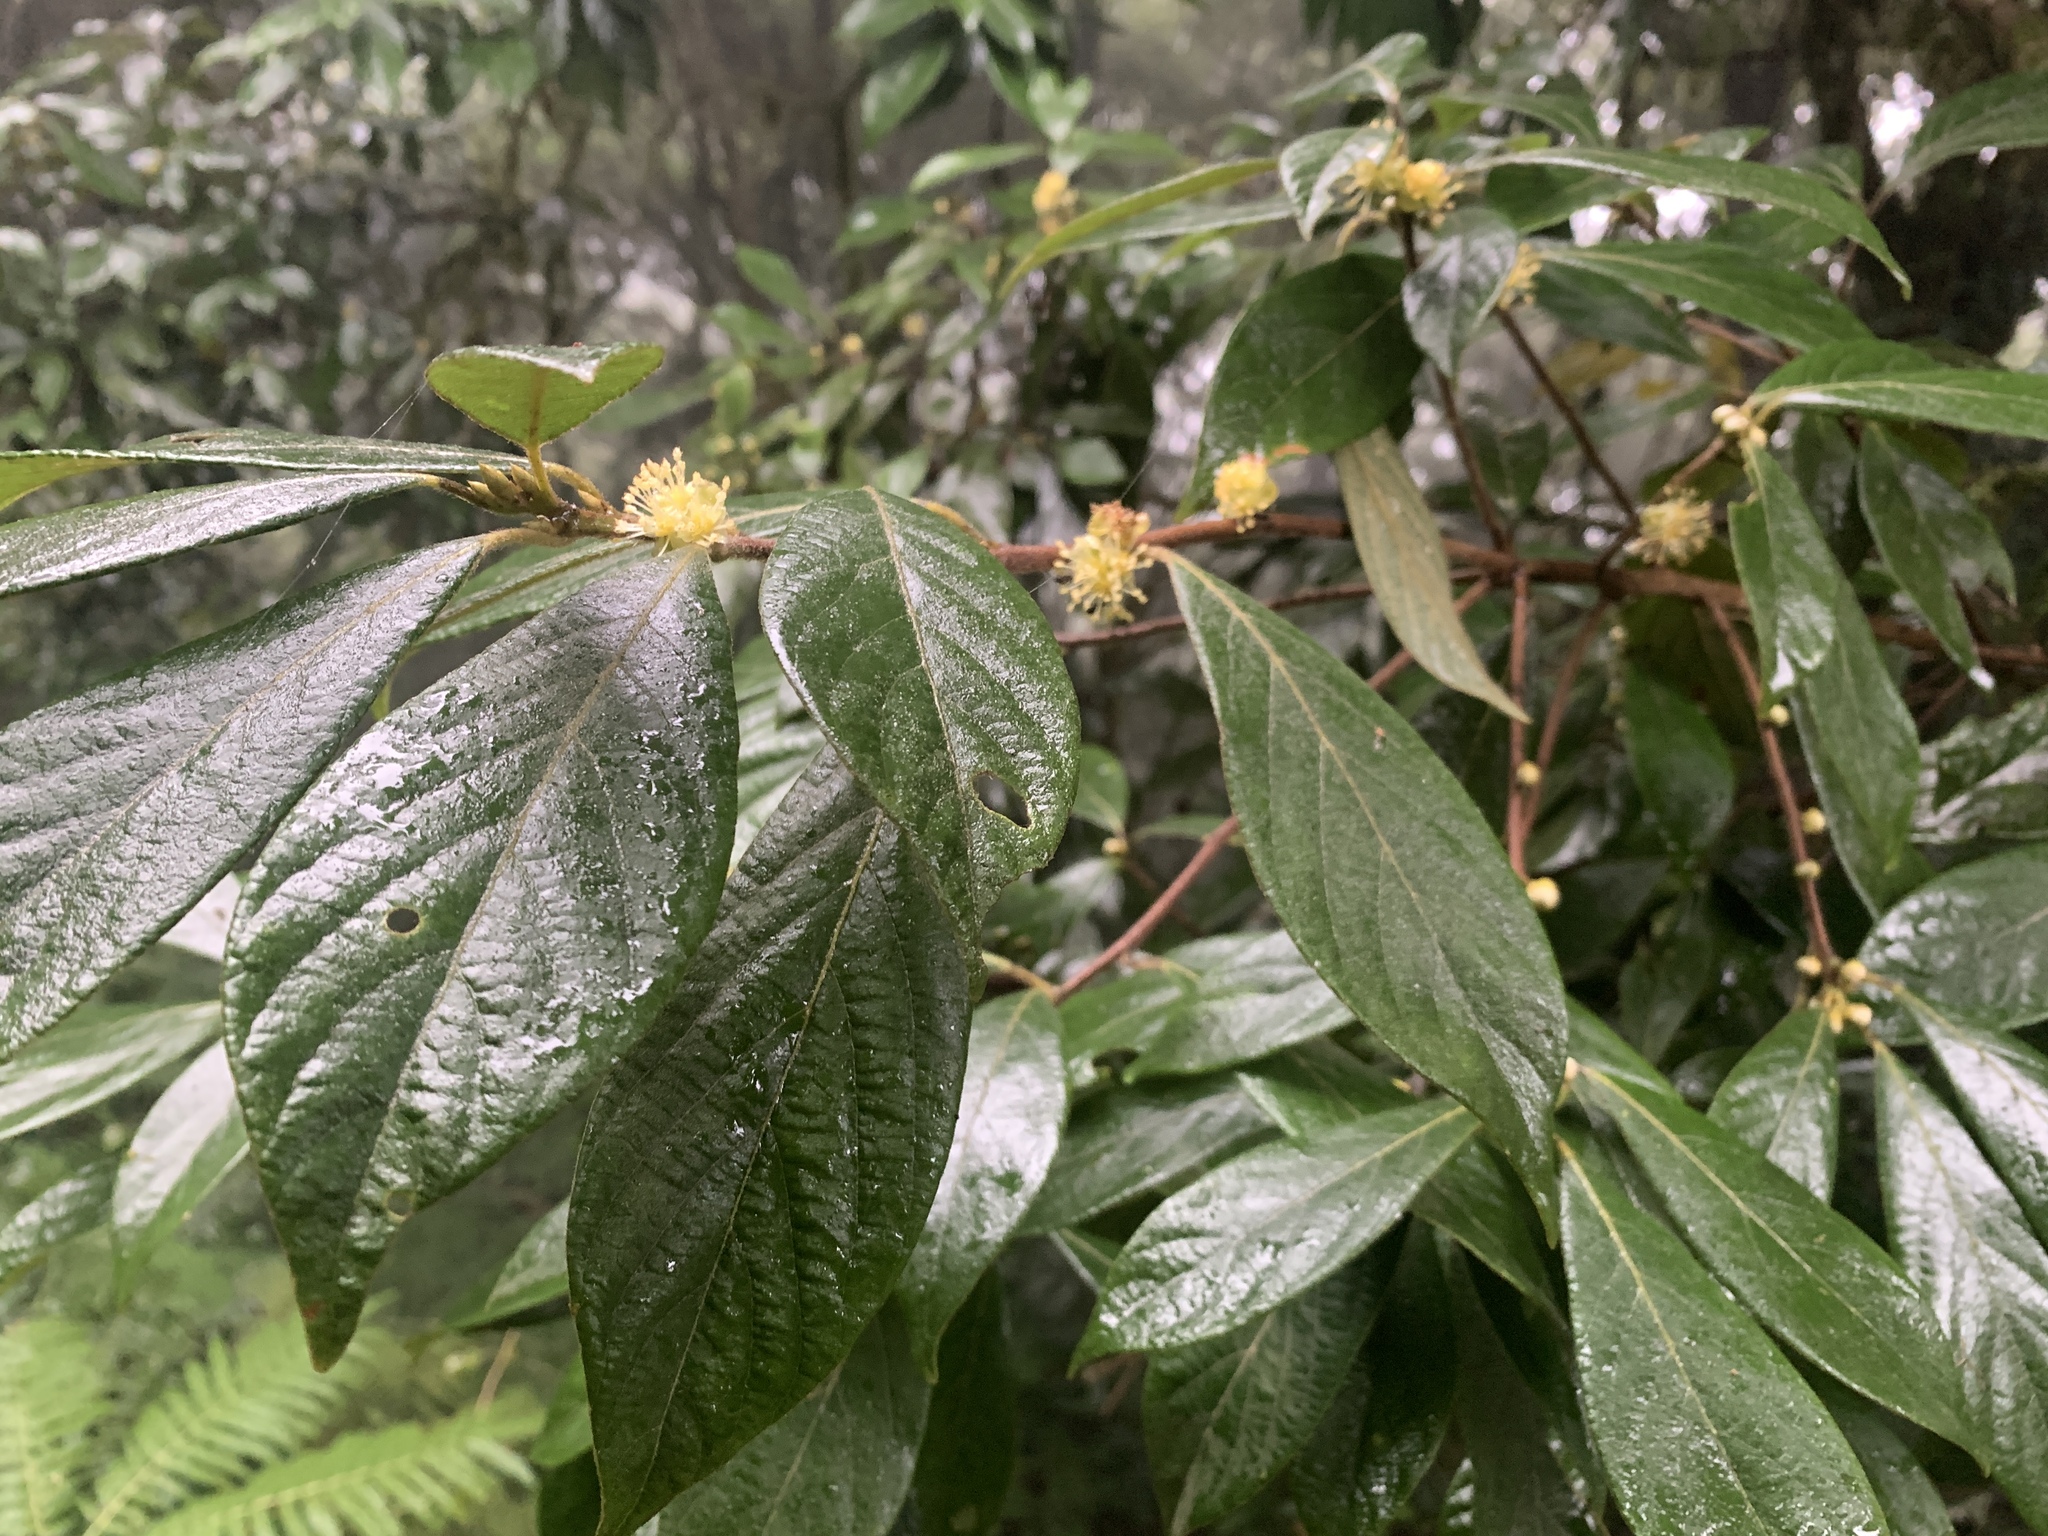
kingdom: Plantae
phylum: Tracheophyta
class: Magnoliopsida
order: Laurales
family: Lauraceae
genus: Actinodaphne
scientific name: Actinodaphne mushaensis
